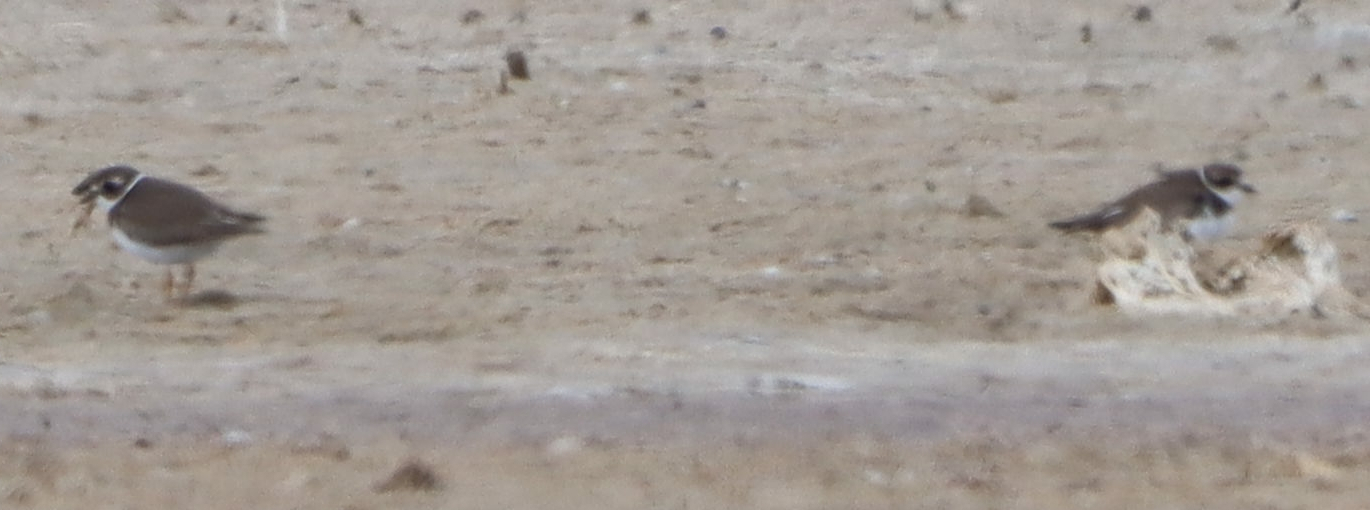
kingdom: Animalia
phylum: Chordata
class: Aves
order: Charadriiformes
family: Charadriidae
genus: Charadrius
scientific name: Charadrius semipalmatus
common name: Semipalmated plover
